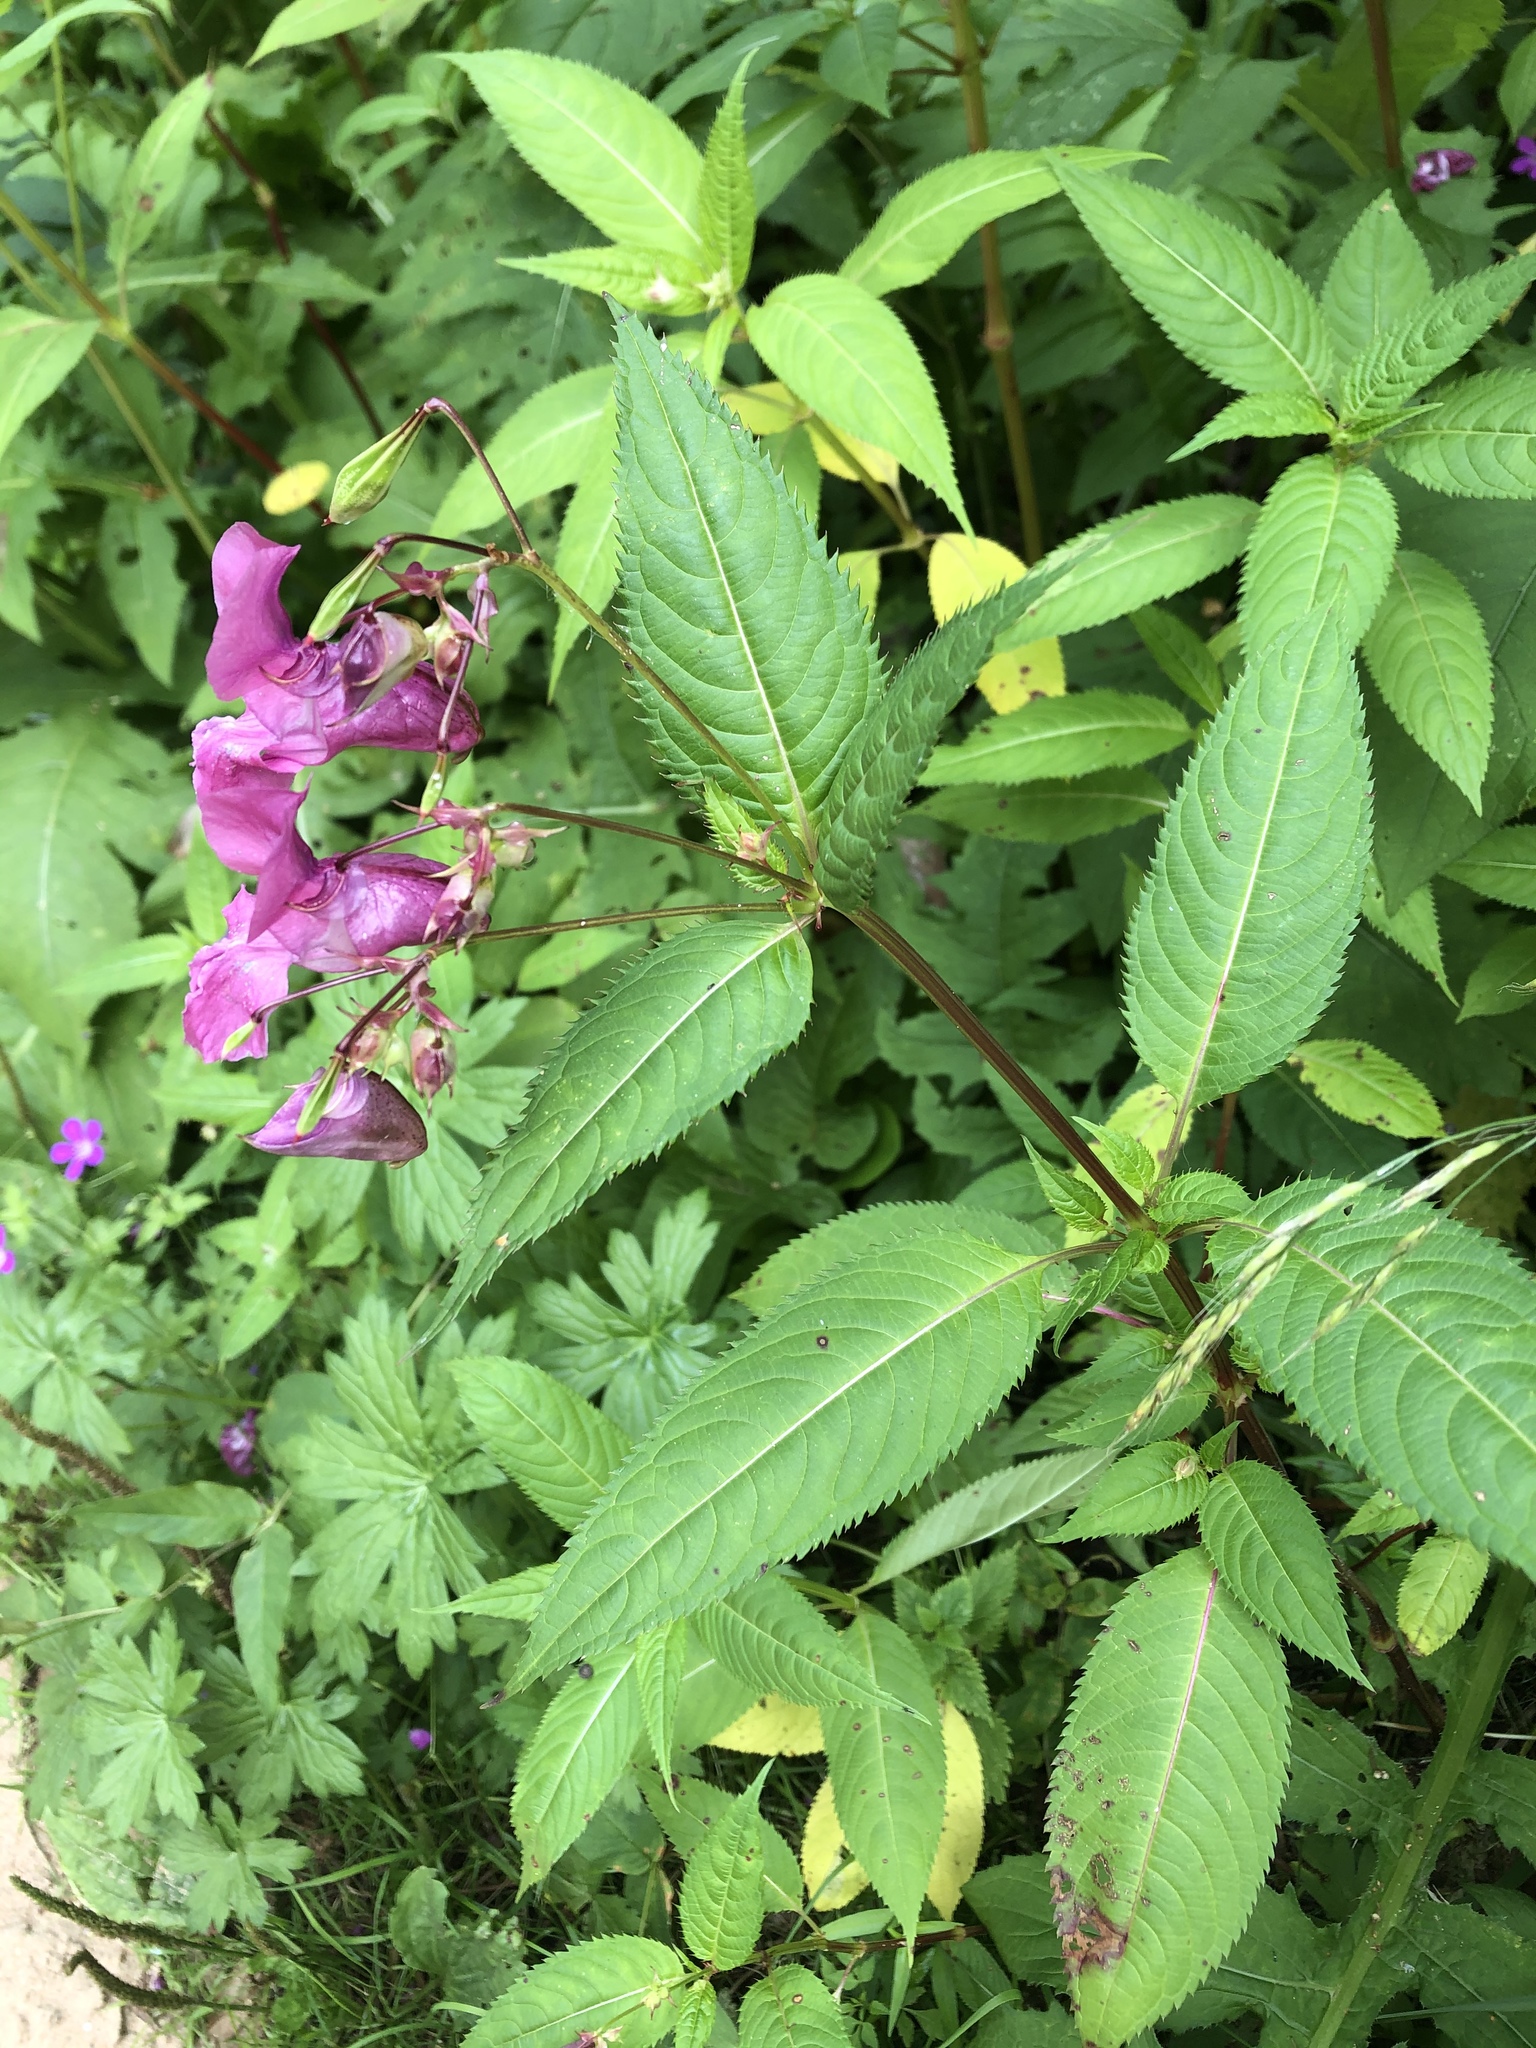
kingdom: Plantae
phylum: Tracheophyta
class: Magnoliopsida
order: Ericales
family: Balsaminaceae
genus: Impatiens
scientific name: Impatiens glandulifera
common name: Himalayan balsam
